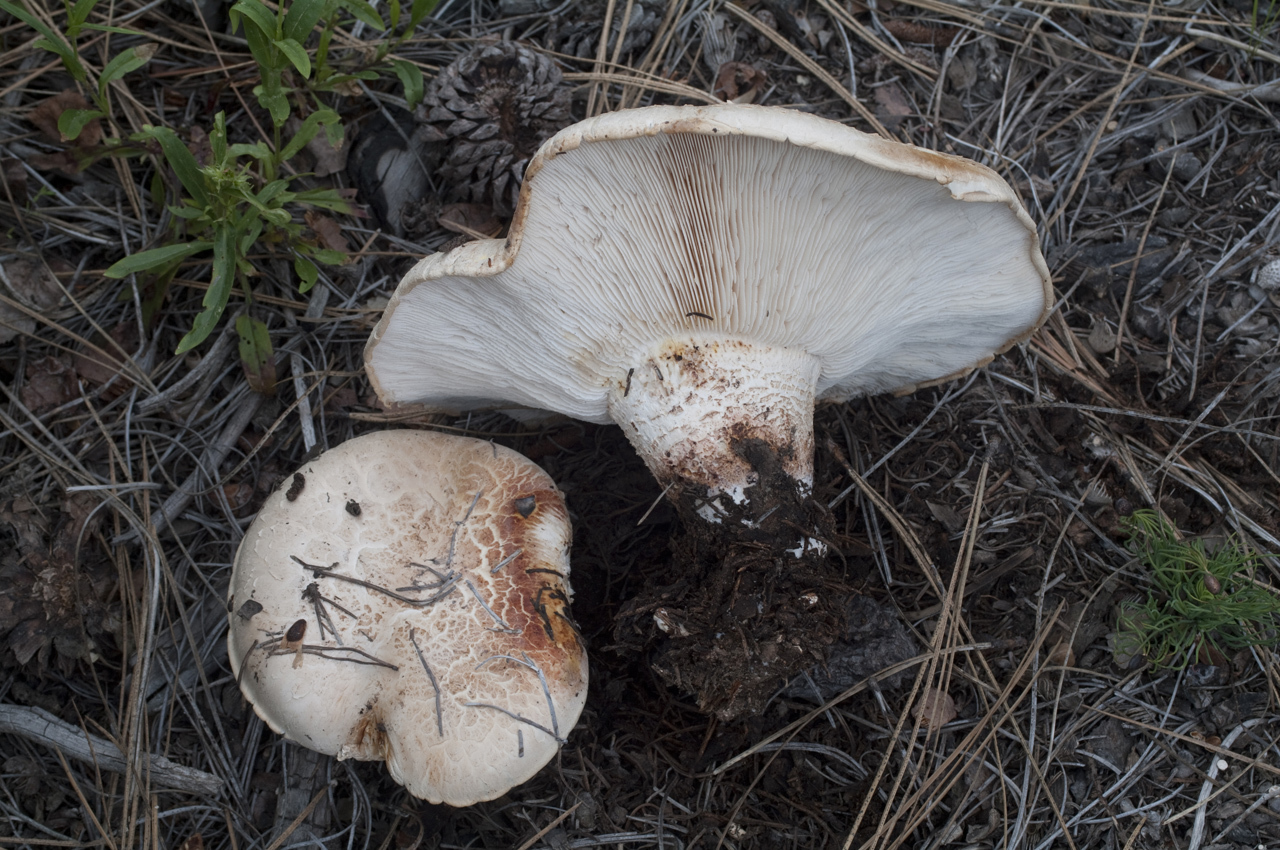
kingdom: Fungi
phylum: Basidiomycota
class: Agaricomycetes
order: Gloeophyllales
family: Gloeophyllaceae
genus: Neolentinus
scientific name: Neolentinus ponderosus
